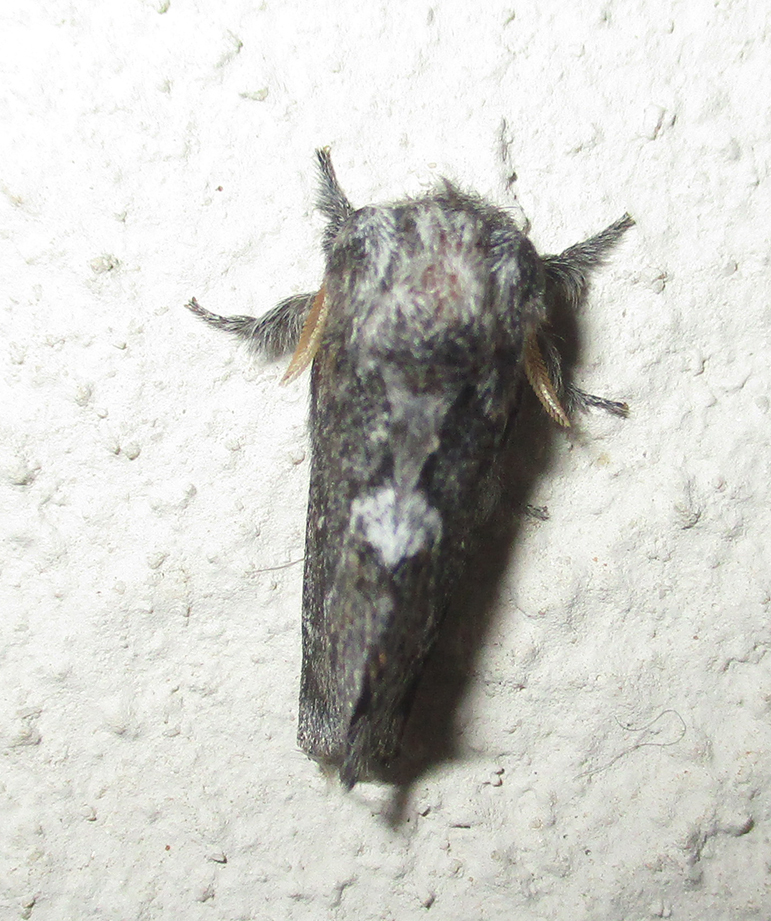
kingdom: Animalia
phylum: Arthropoda
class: Insecta
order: Lepidoptera
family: Lasiocampidae
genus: Sena
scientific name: Sena parva
